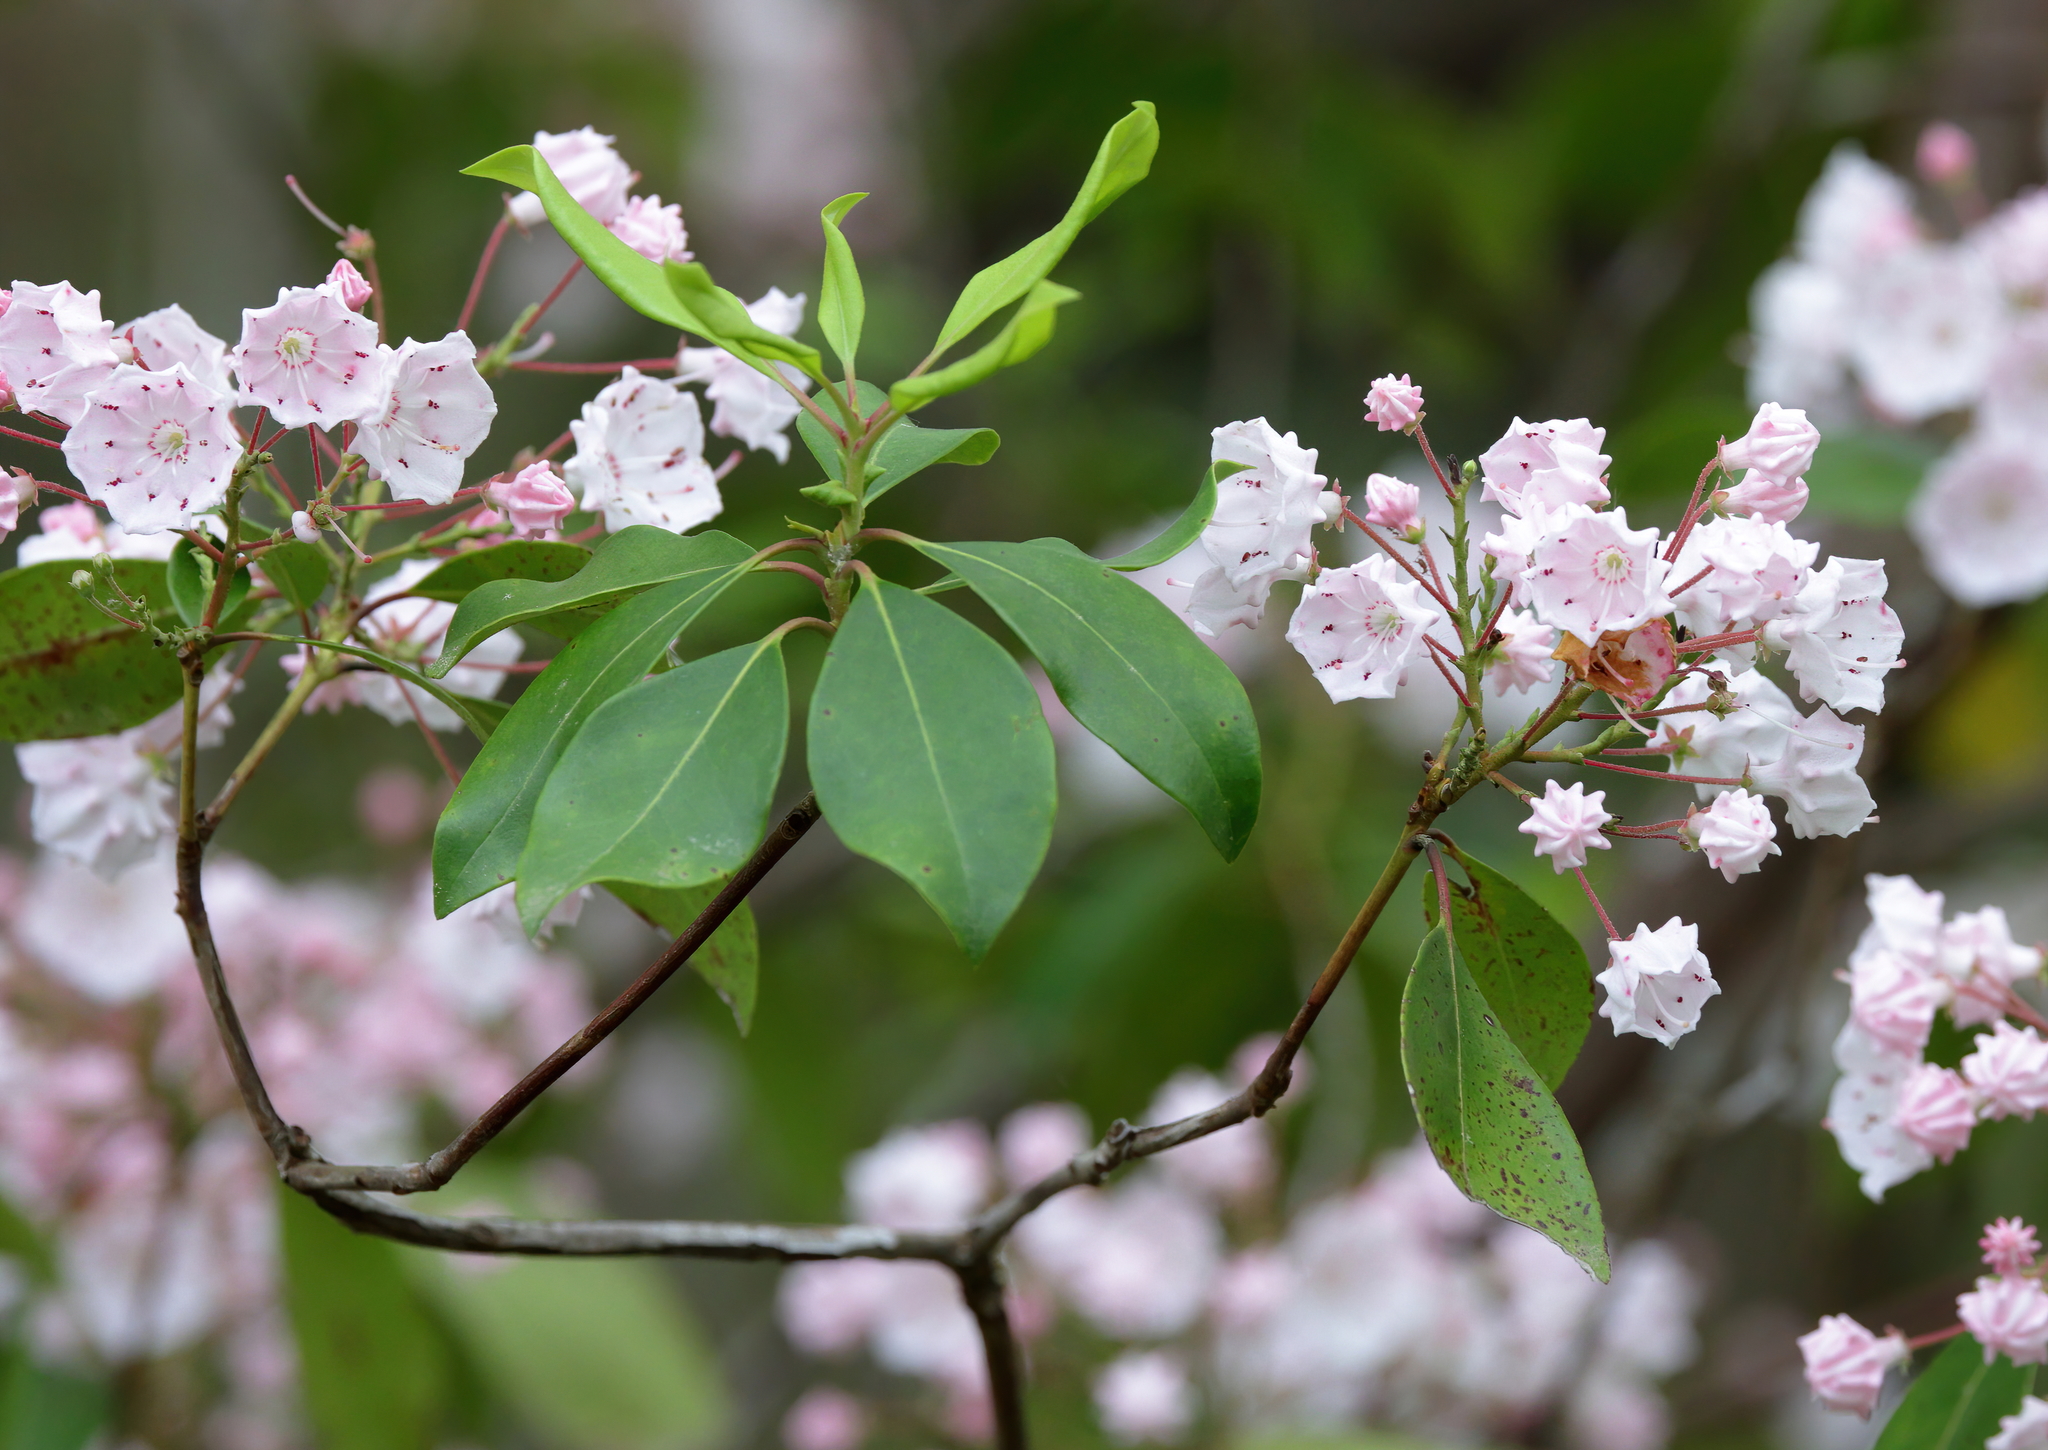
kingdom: Plantae
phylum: Tracheophyta
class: Magnoliopsida
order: Ericales
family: Ericaceae
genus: Kalmia
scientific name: Kalmia latifolia
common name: Mountain-laurel
